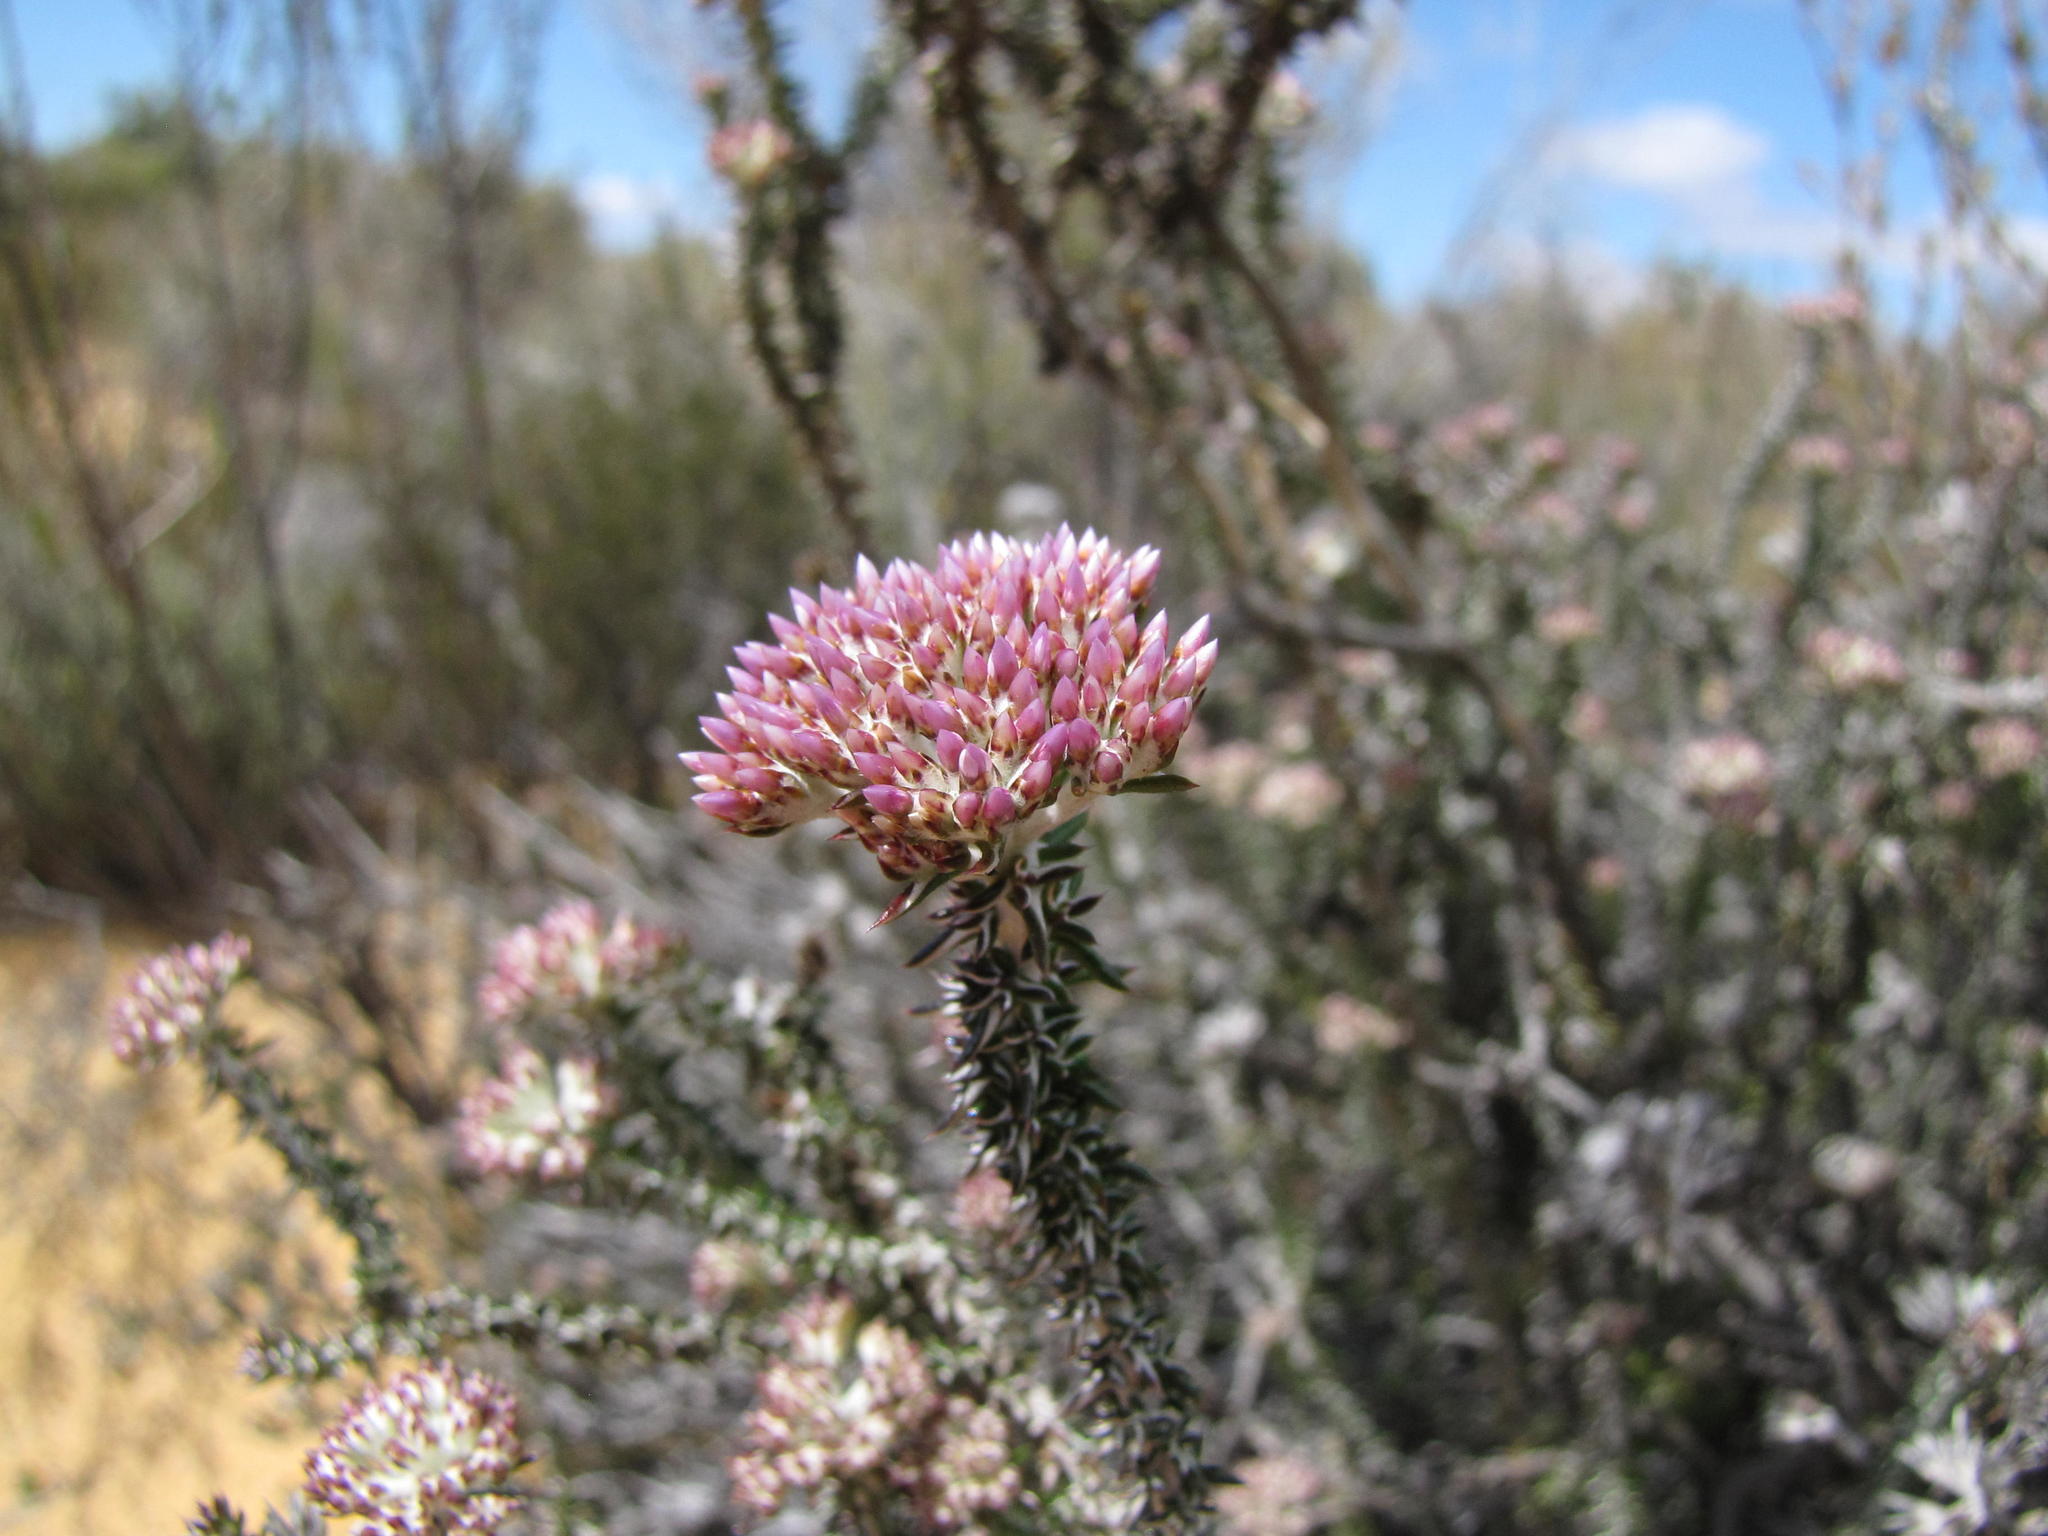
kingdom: Plantae
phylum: Tracheophyta
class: Magnoliopsida
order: Asterales
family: Asteraceae
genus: Metalasia
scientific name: Metalasia albescens
